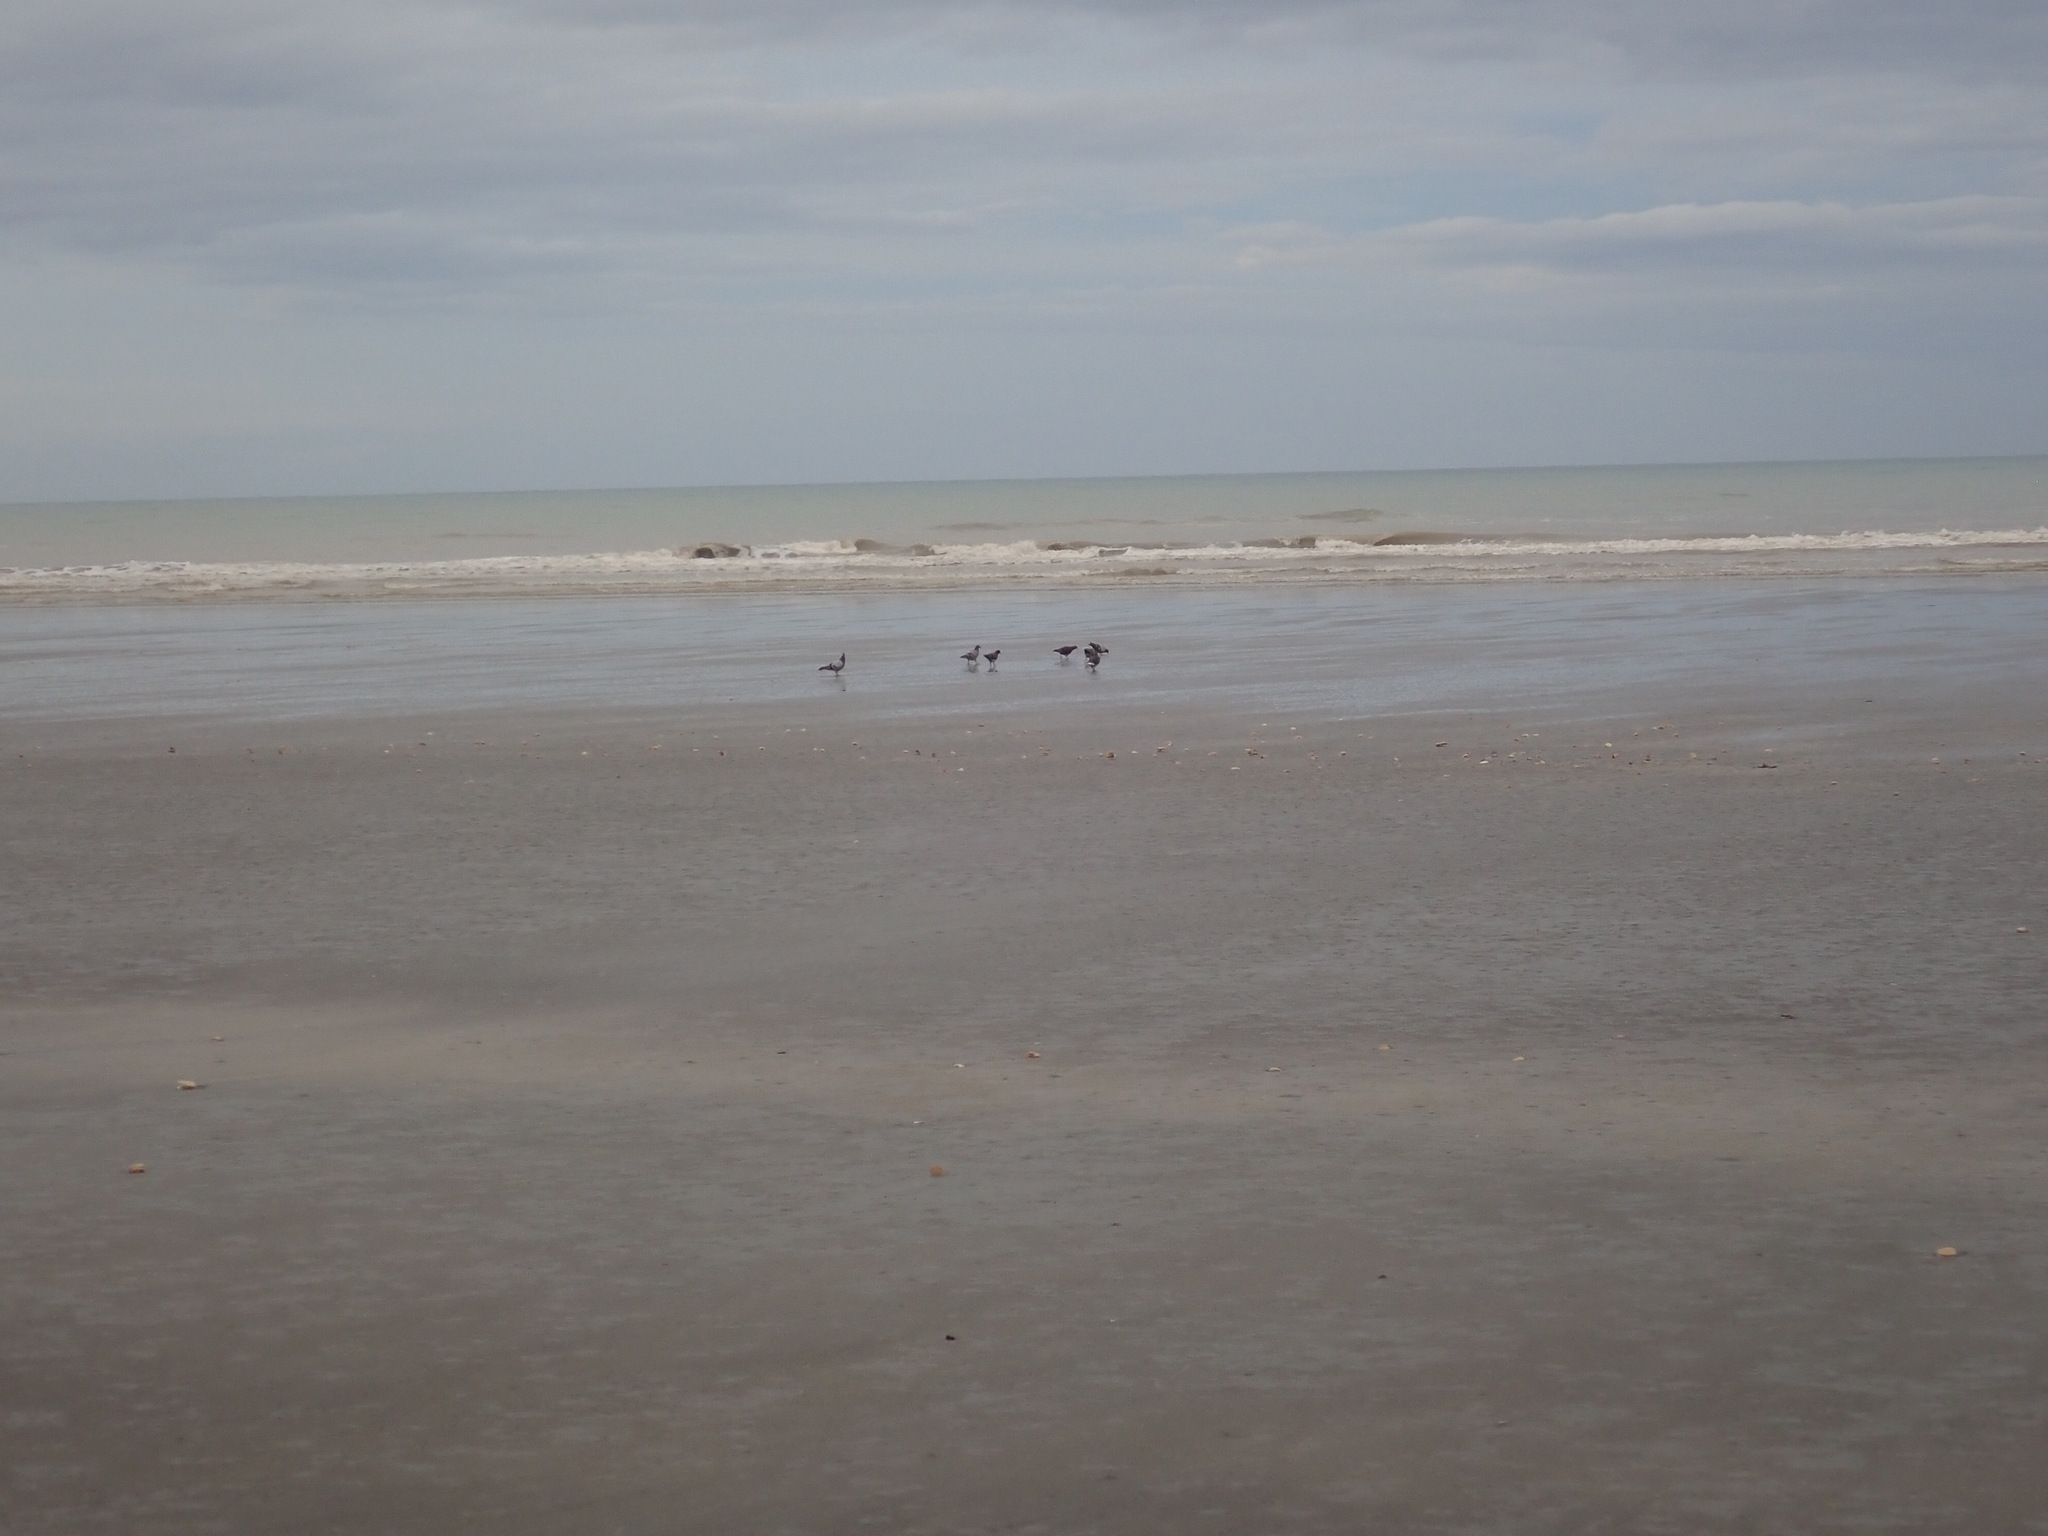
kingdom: Animalia
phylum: Chordata
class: Aves
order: Columbiformes
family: Columbidae
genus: Columba
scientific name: Columba livia
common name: Rock pigeon
